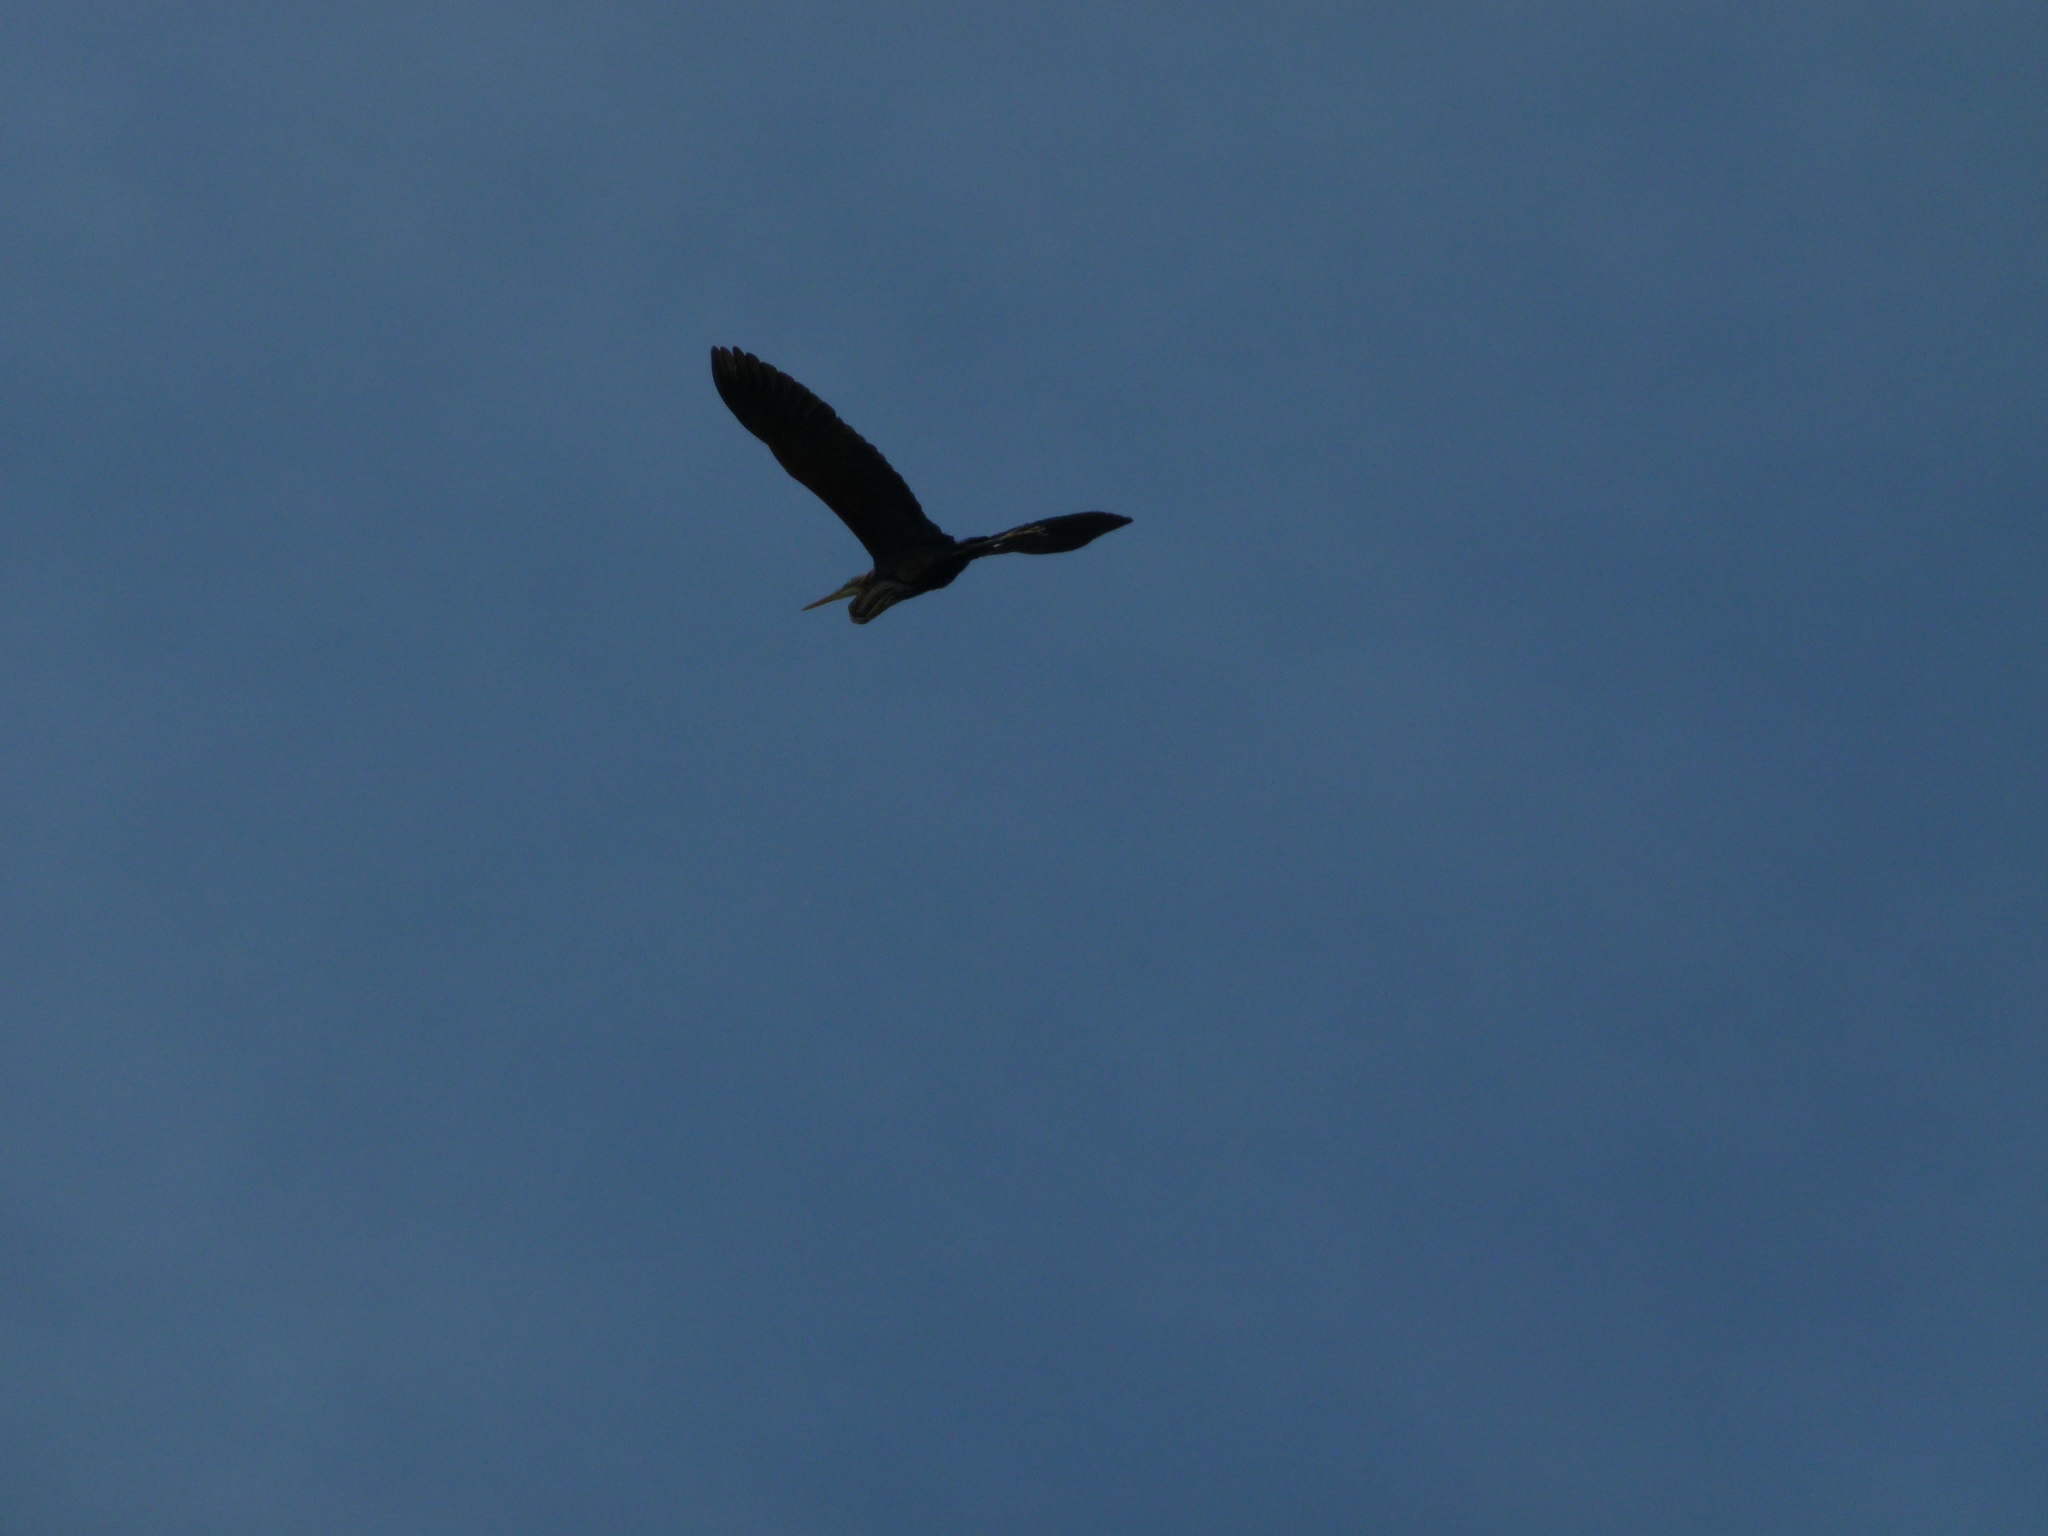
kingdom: Animalia
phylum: Chordata
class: Aves
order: Pelecaniformes
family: Ardeidae
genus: Ardea
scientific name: Ardea purpurea
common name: Purple heron
